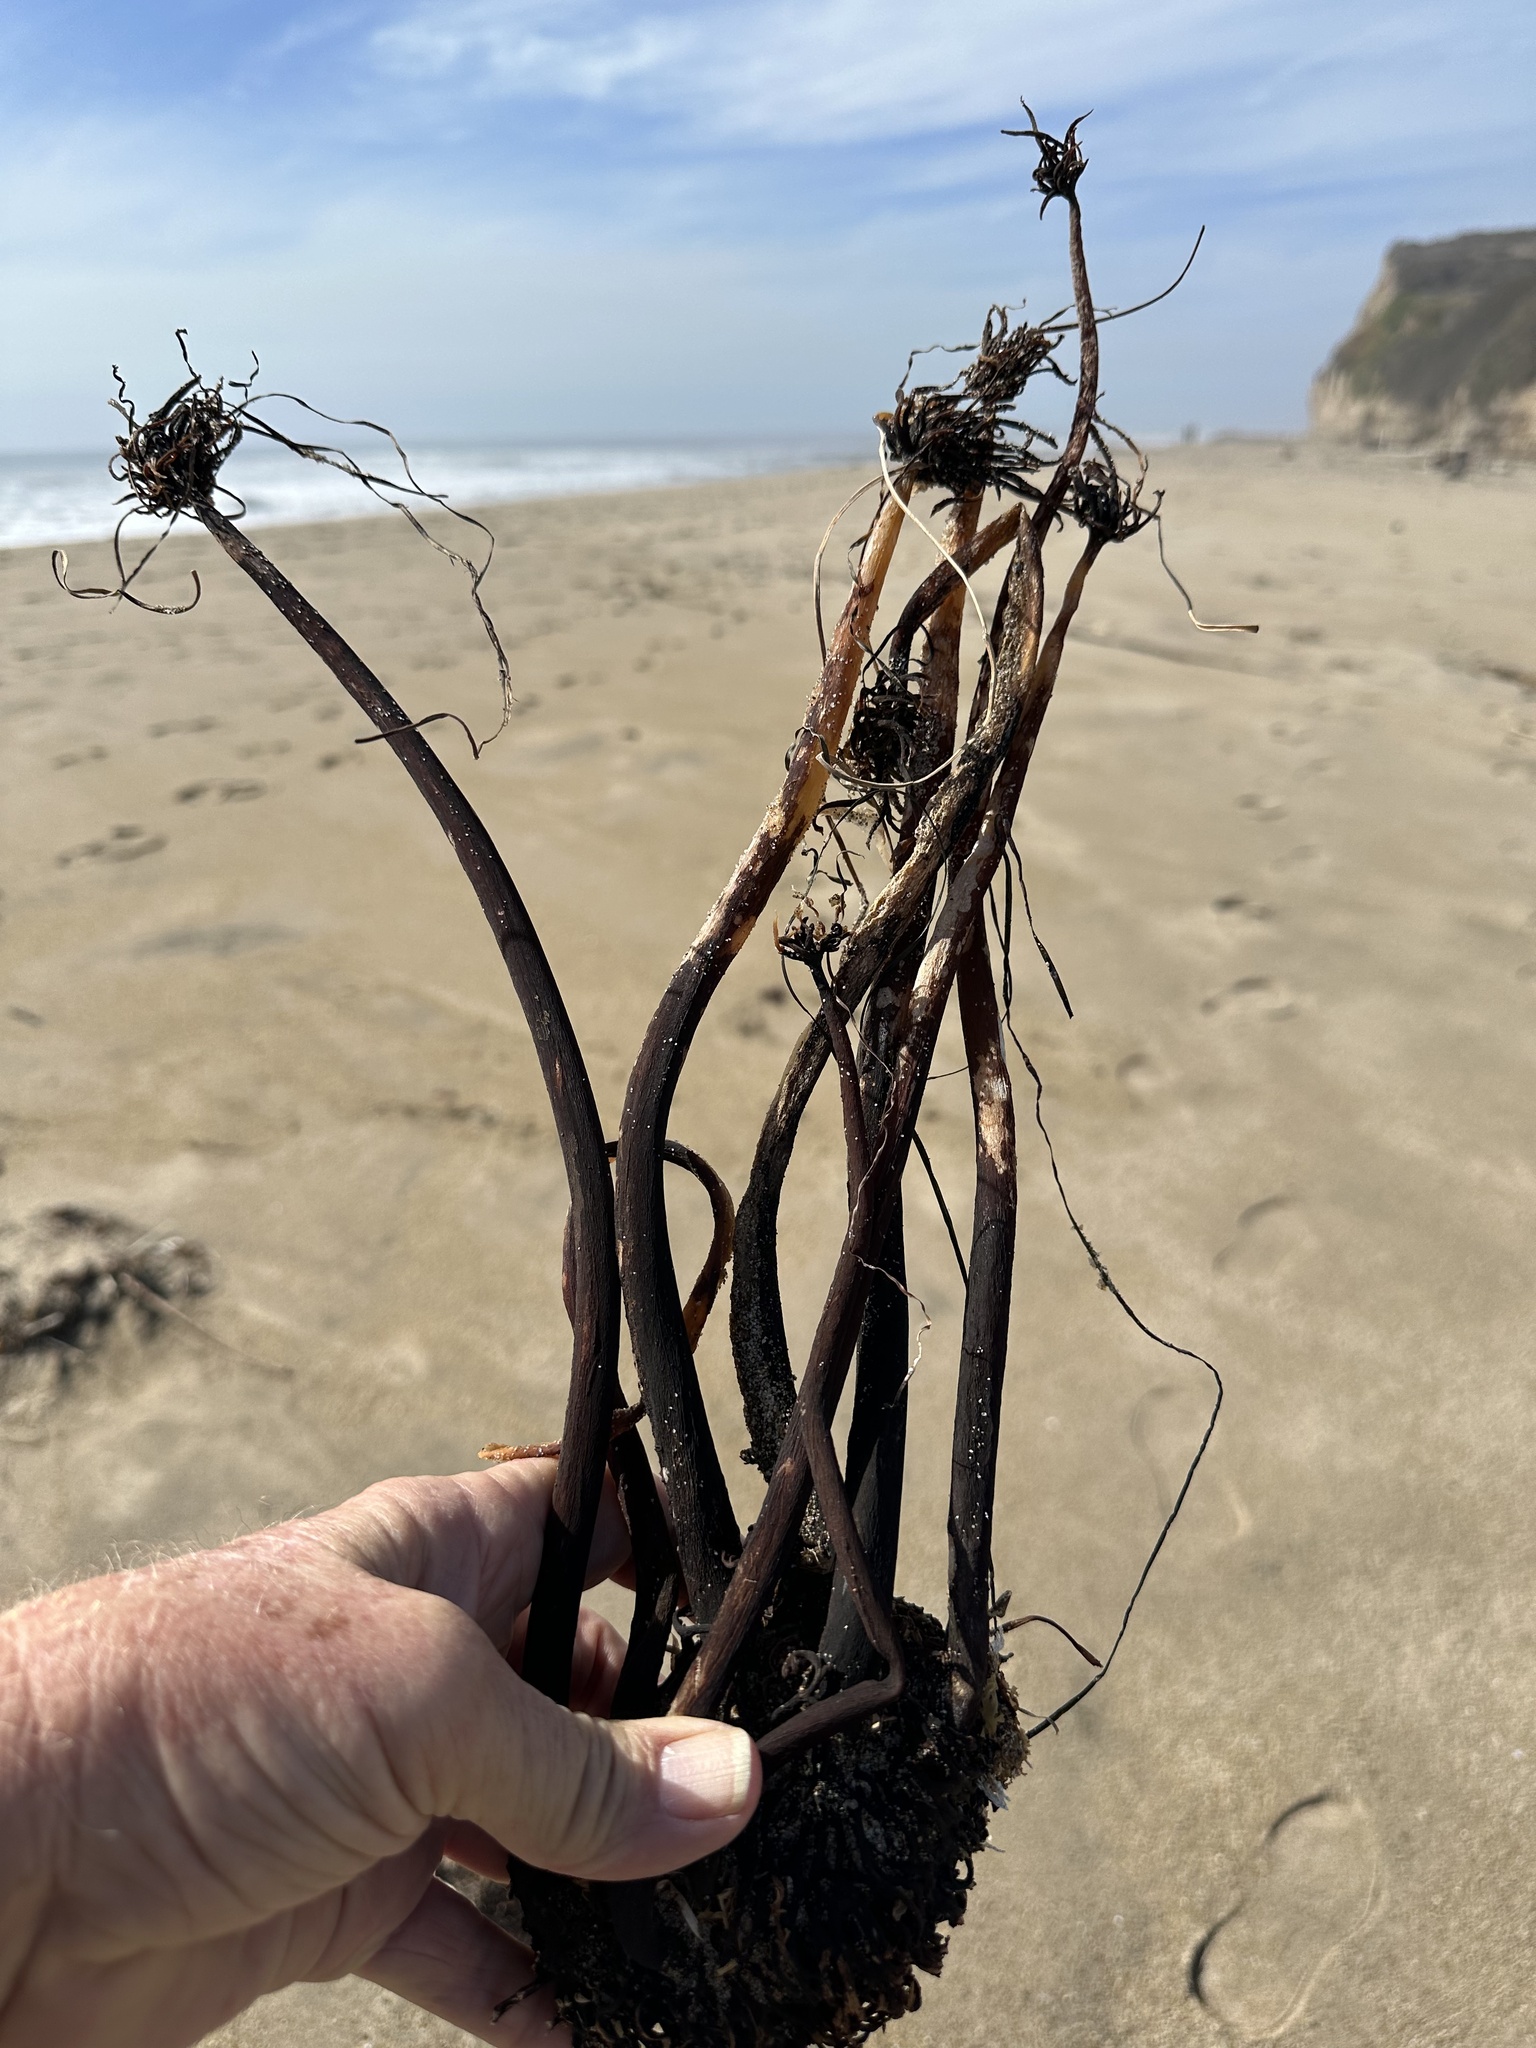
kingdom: Chromista
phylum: Ochrophyta
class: Phaeophyceae
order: Laminariales
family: Laminariaceae
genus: Postelsia
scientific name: Postelsia palmiformis
